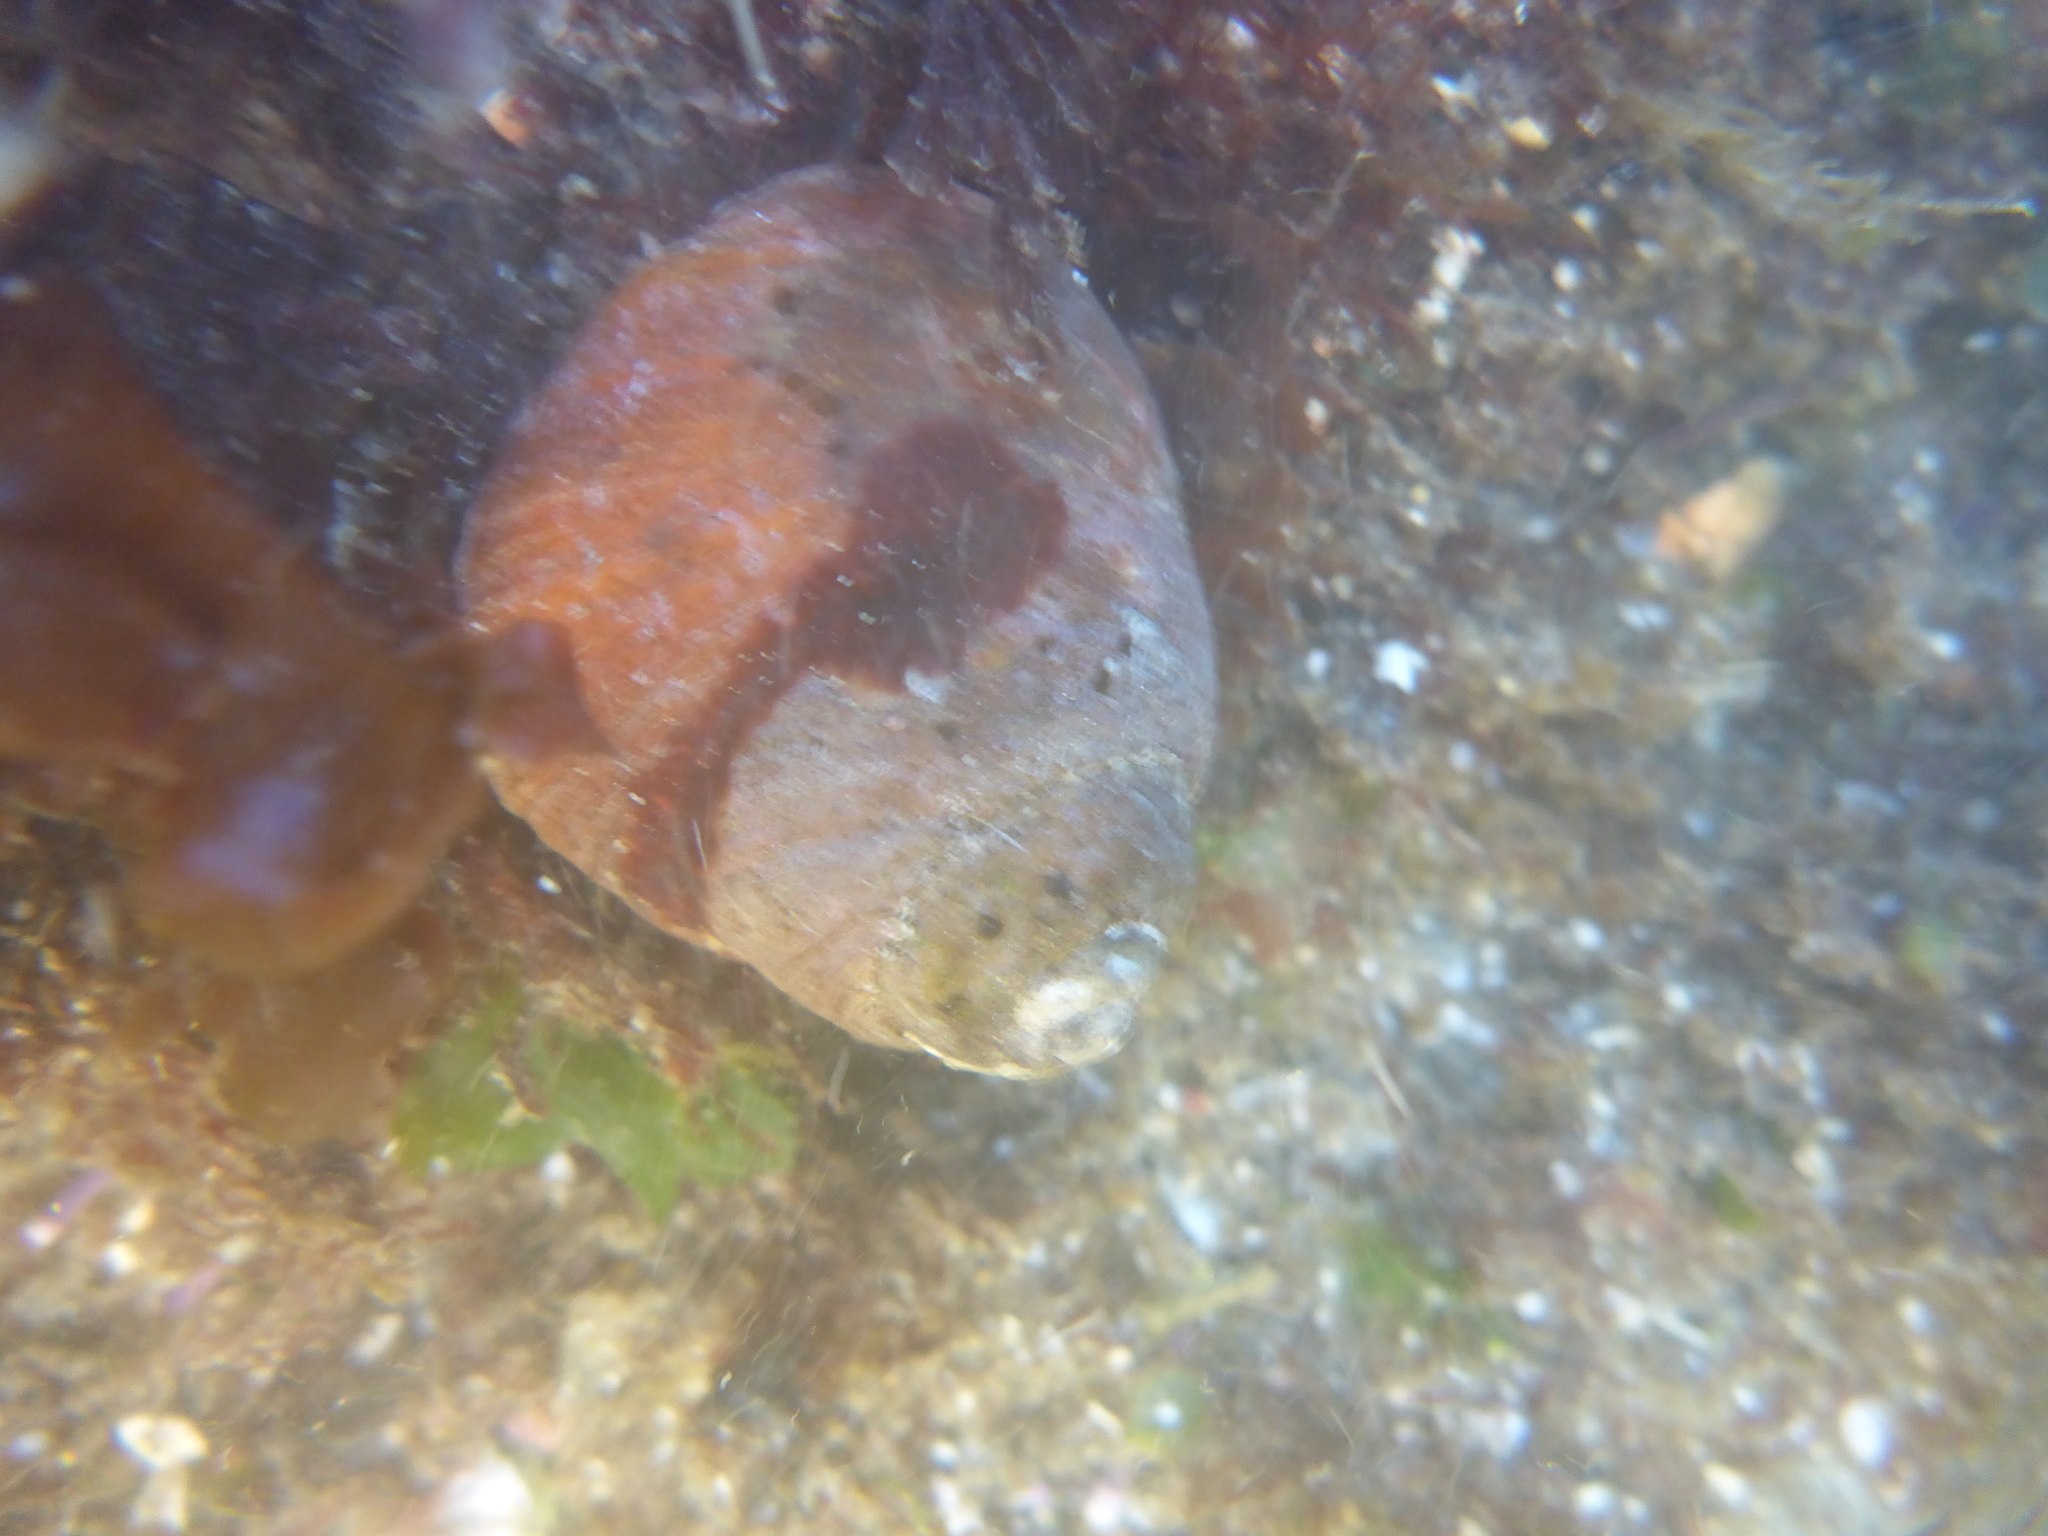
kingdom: Animalia
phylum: Mollusca
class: Gastropoda
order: Trochida
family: Tegulidae
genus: Tegula
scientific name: Tegula brunnea
